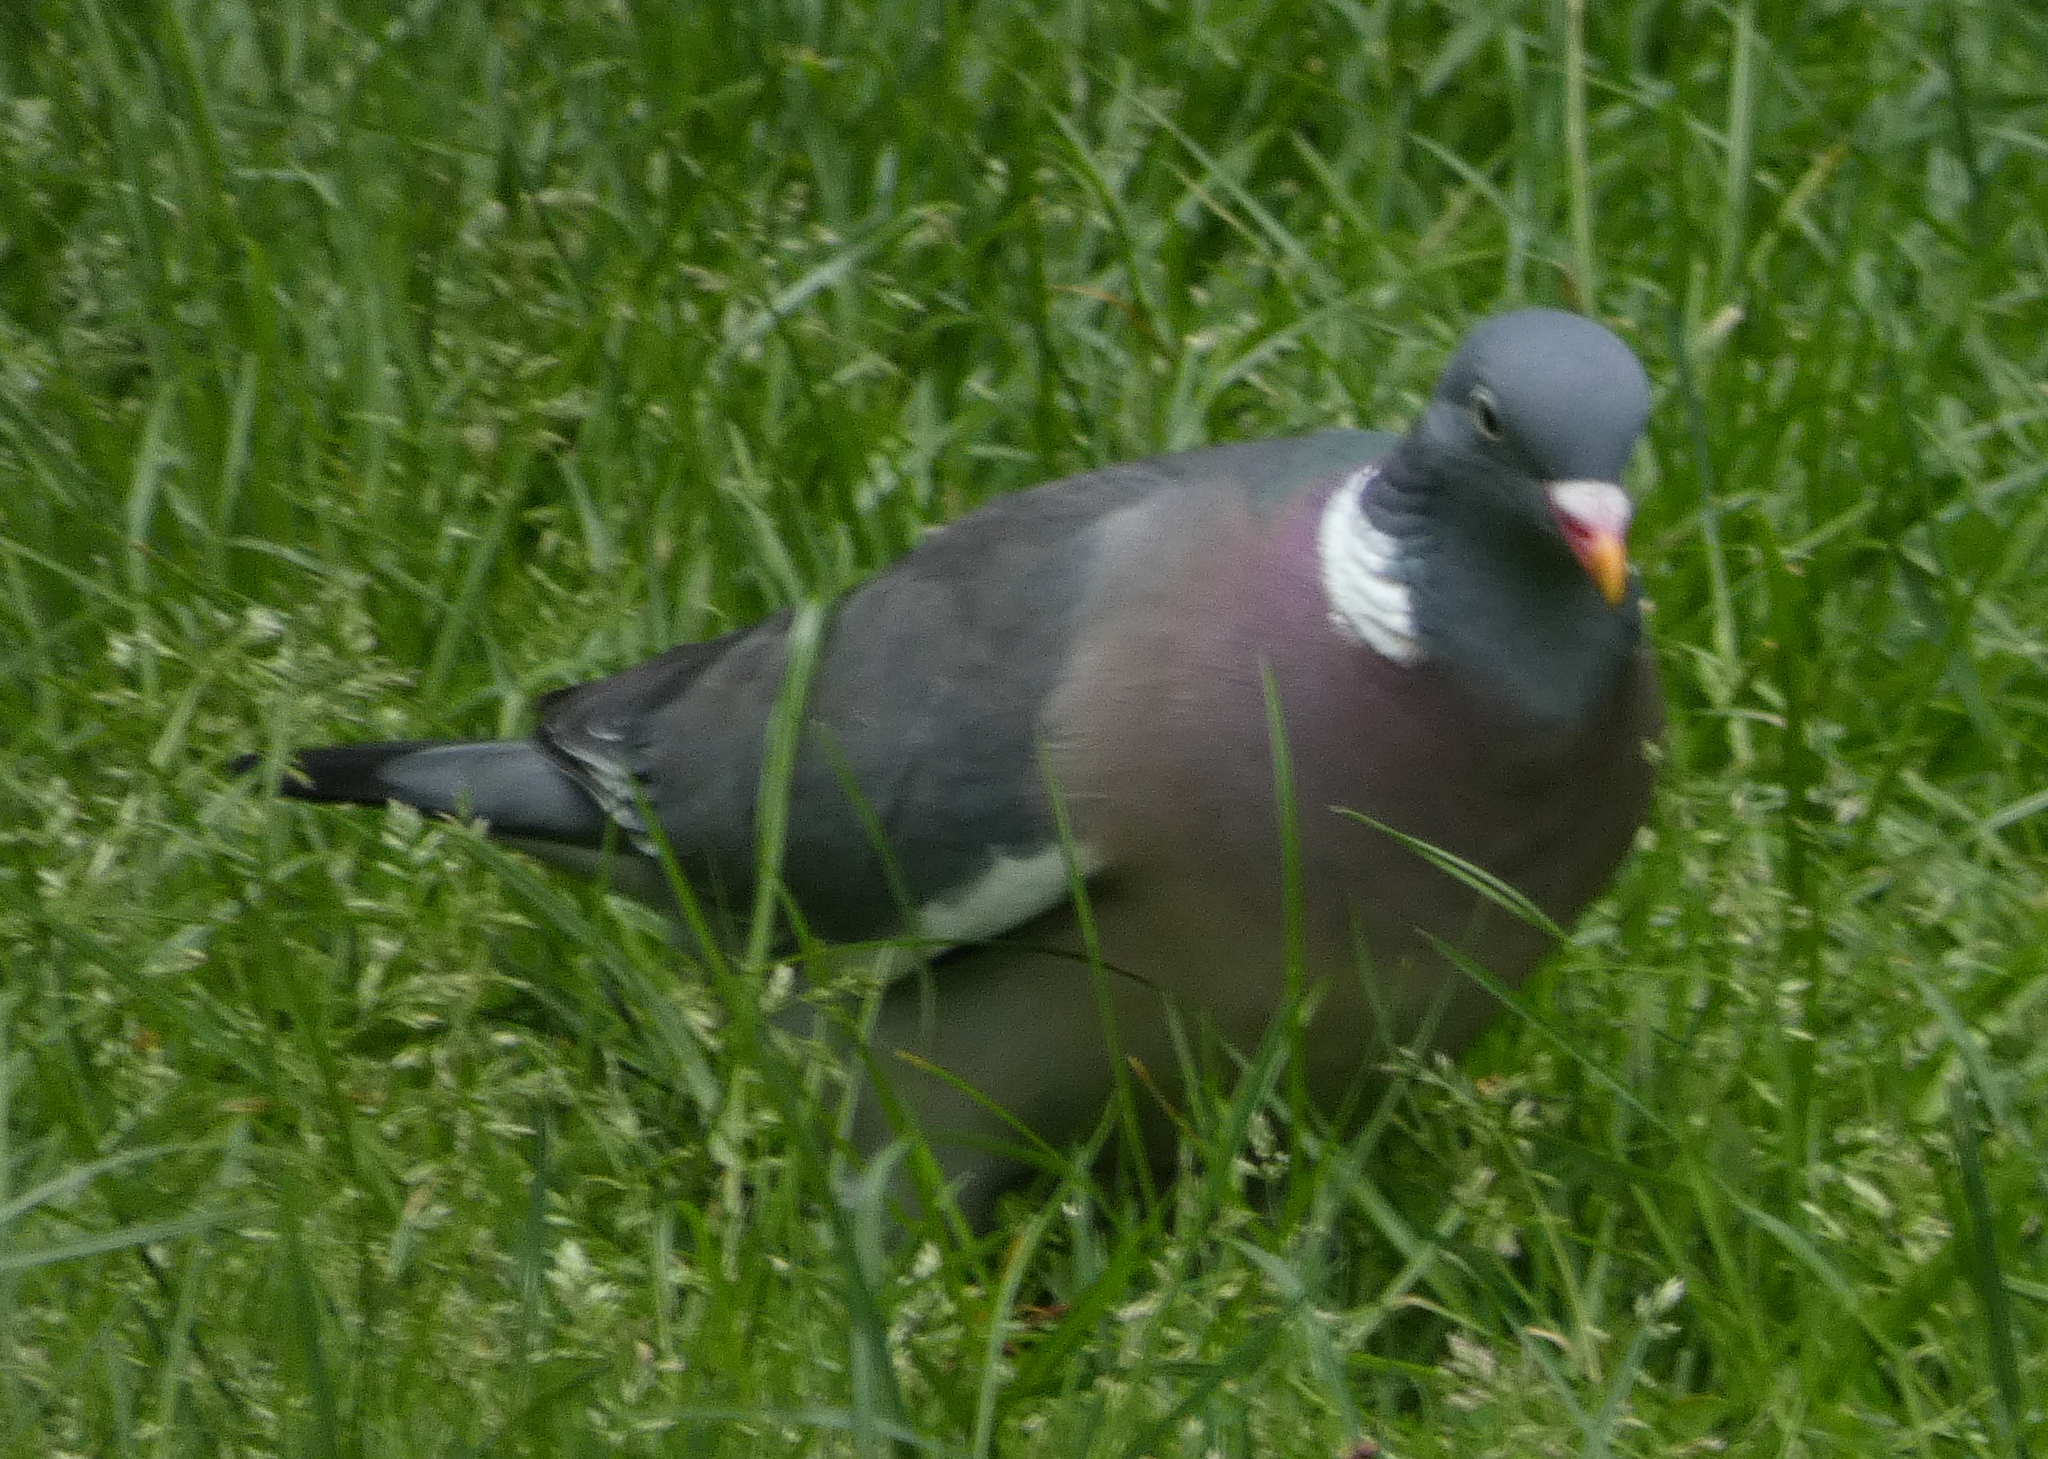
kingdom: Animalia
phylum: Chordata
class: Aves
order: Columbiformes
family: Columbidae
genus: Columba
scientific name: Columba palumbus
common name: Common wood pigeon
